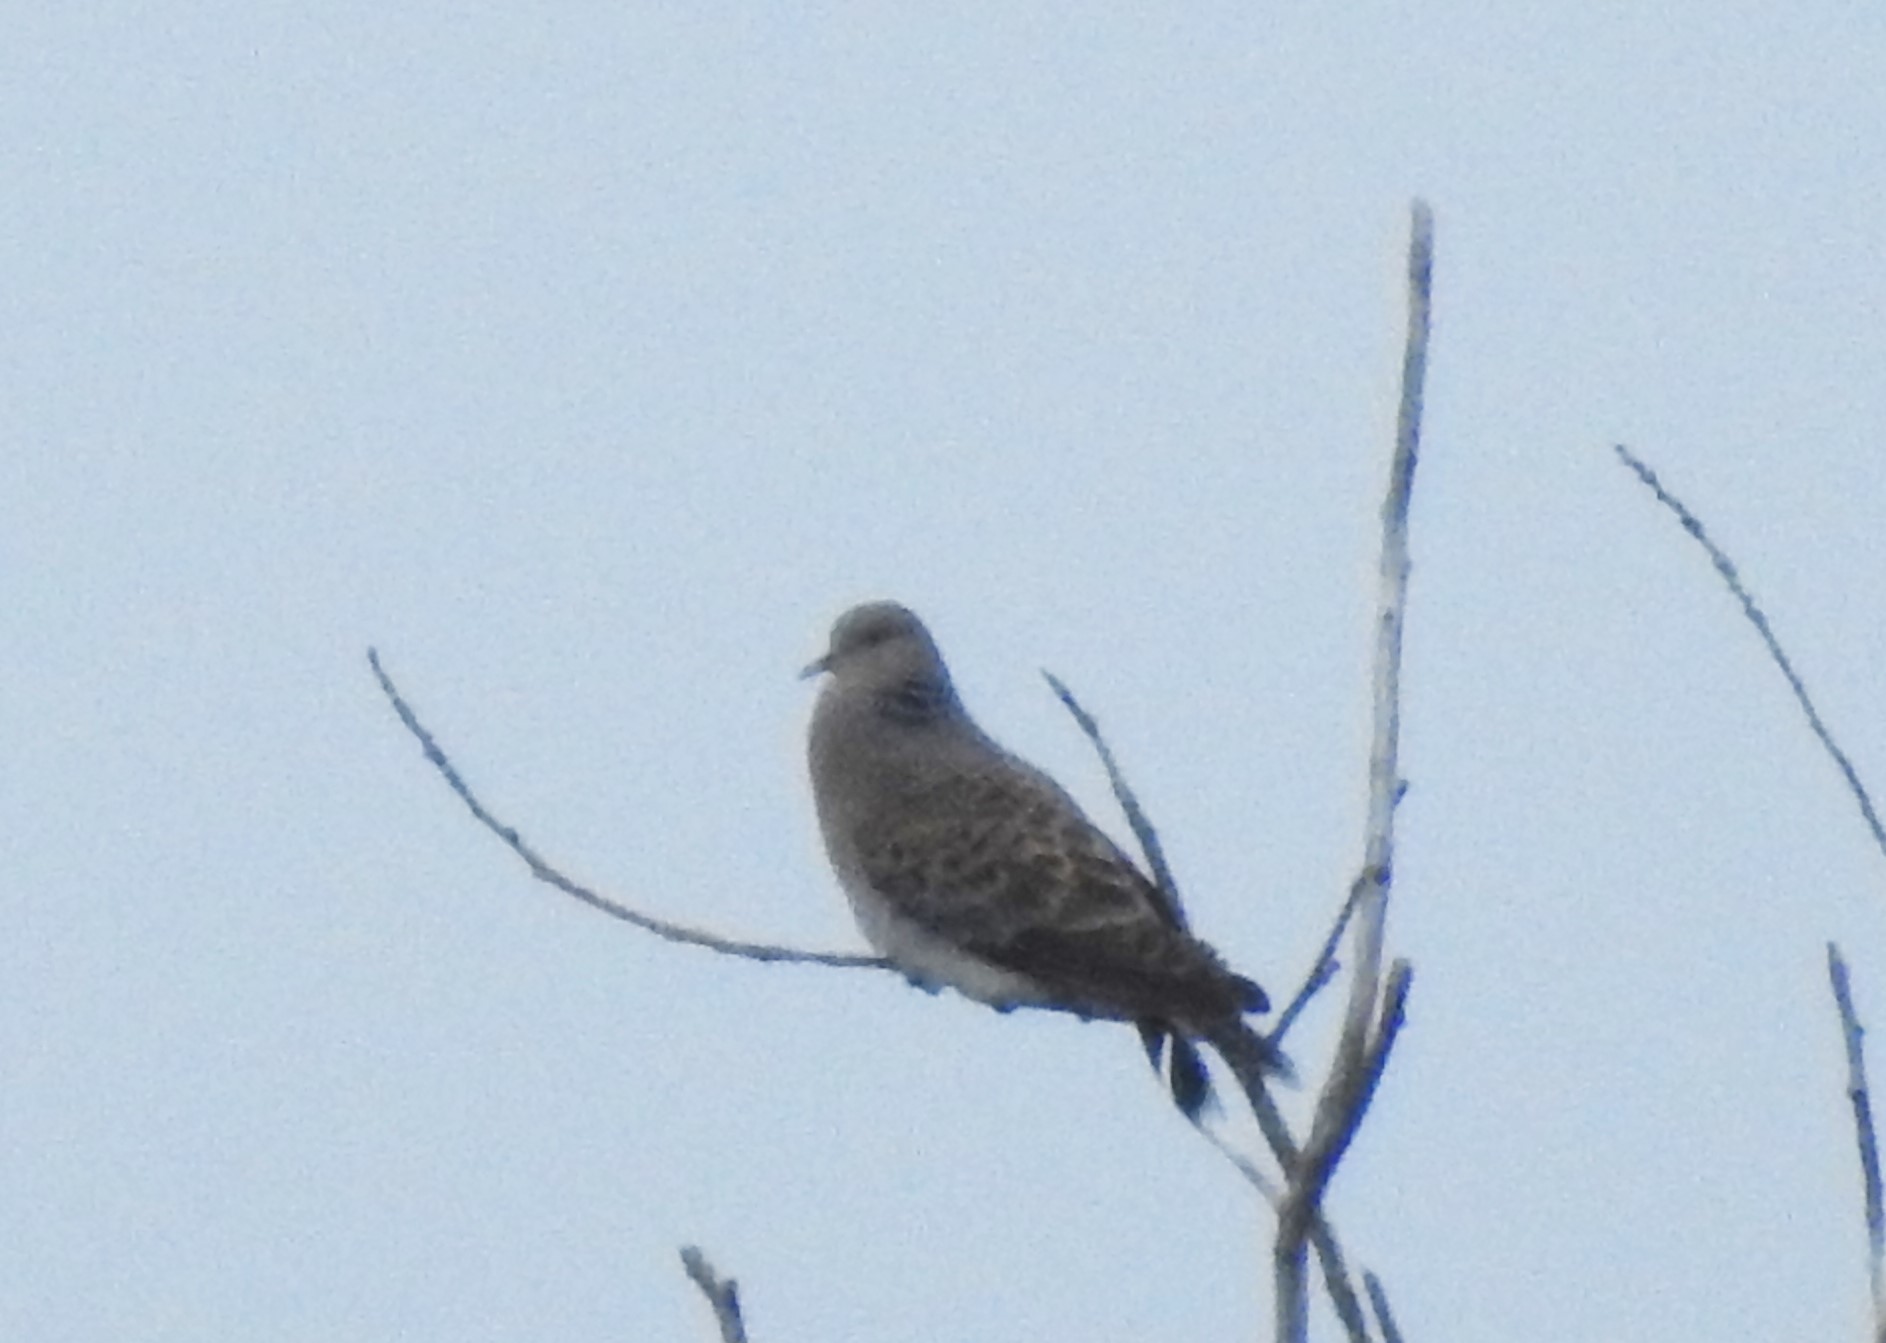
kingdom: Animalia
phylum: Chordata
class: Aves
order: Columbiformes
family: Columbidae
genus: Streptopelia
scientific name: Streptopelia orientalis
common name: Oriental turtle dove
